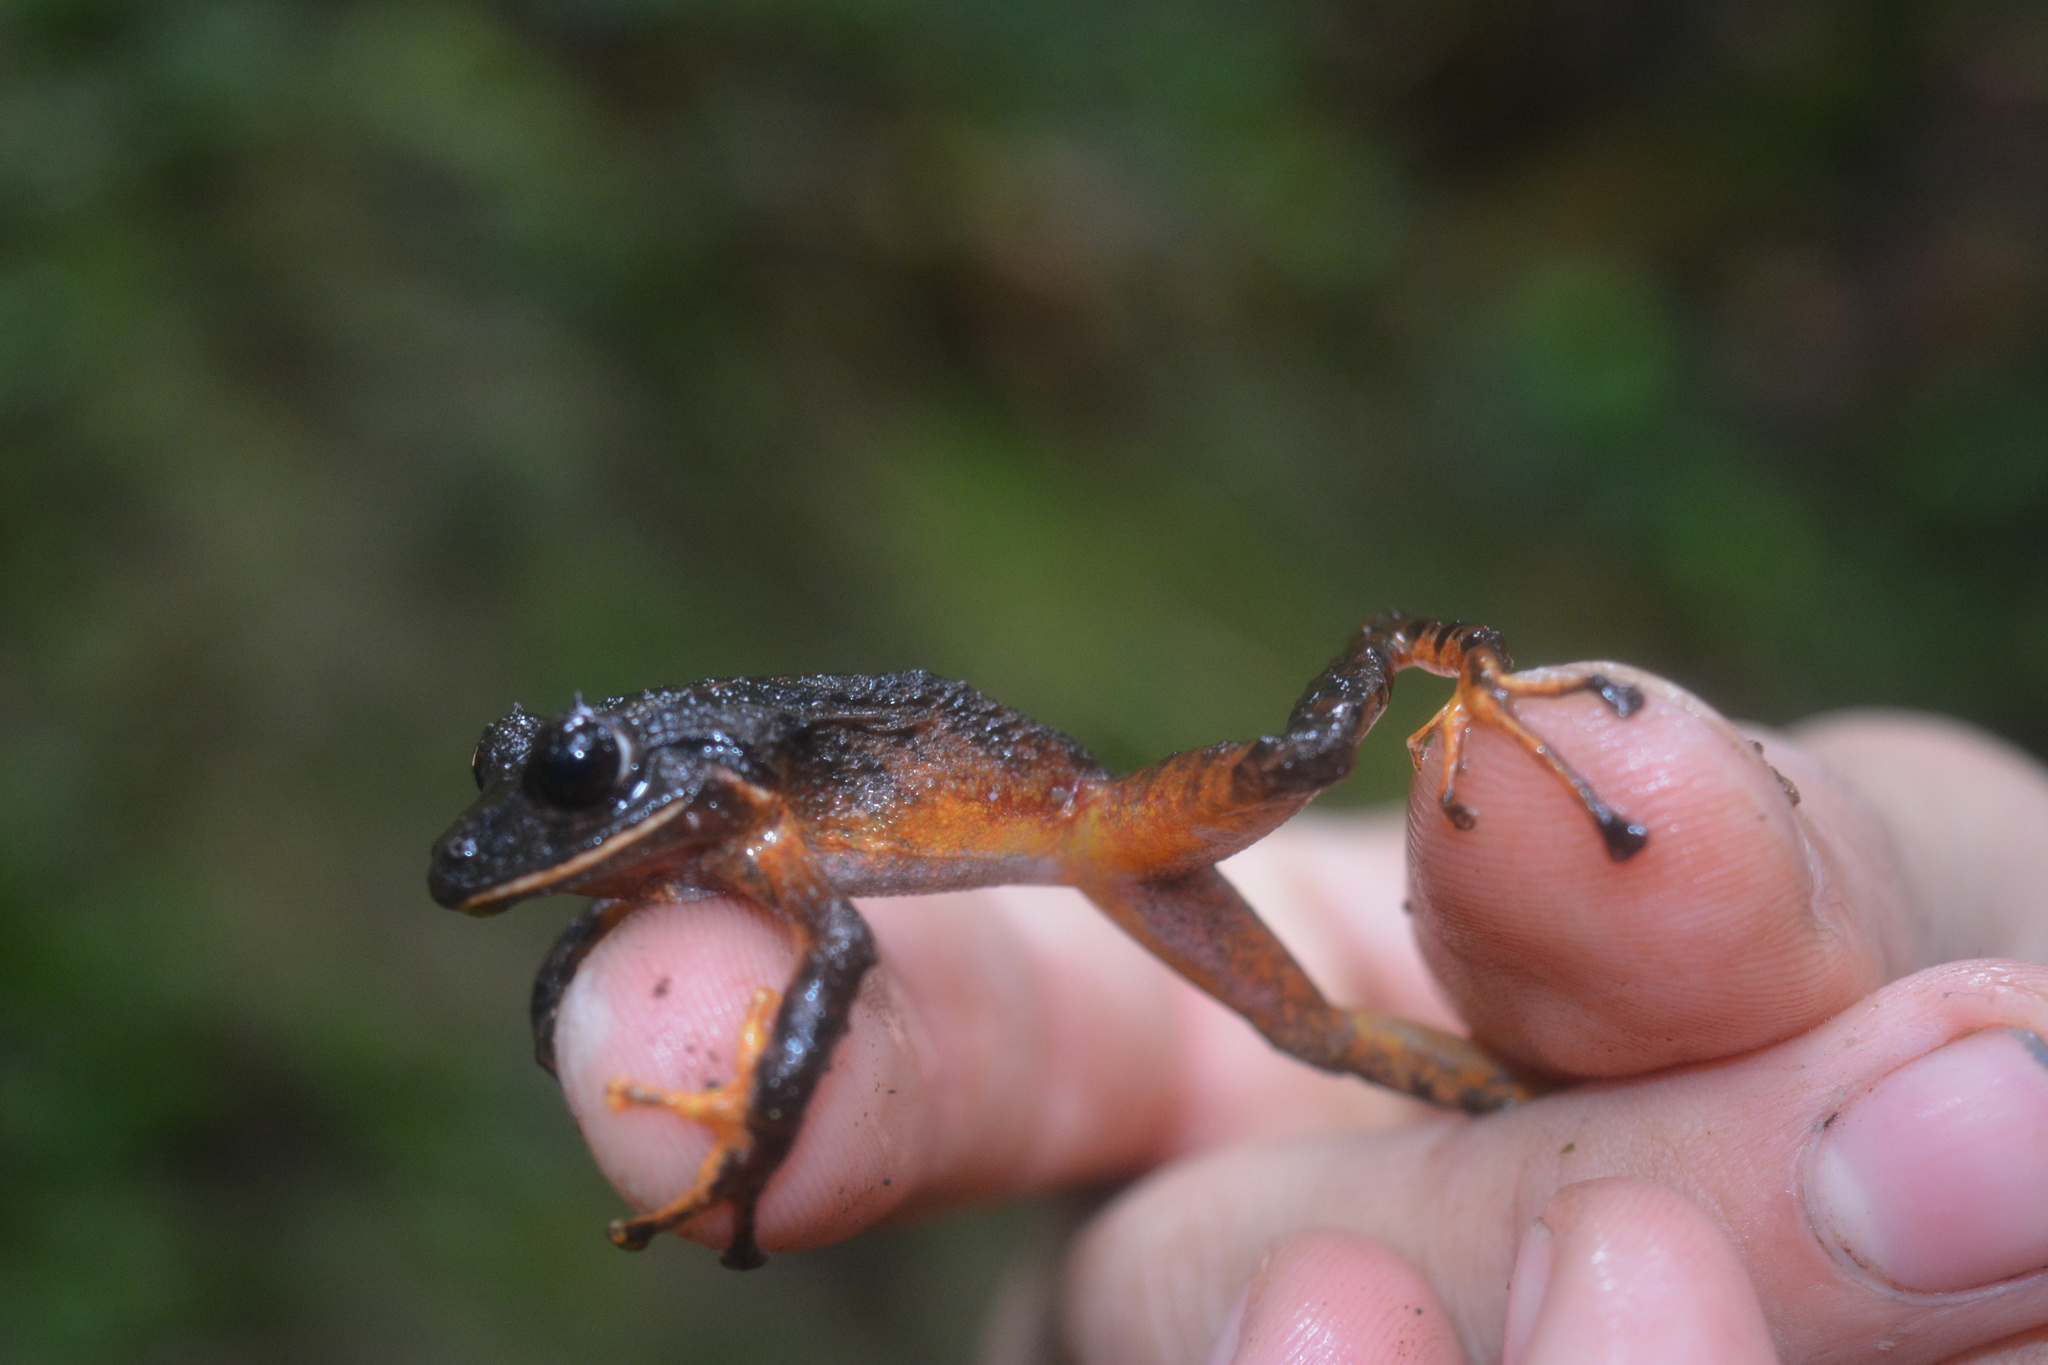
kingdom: Animalia
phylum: Chordata
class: Amphibia
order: Anura
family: Craugastoridae
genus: Pristimantis
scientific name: Pristimantis gretathunbergae
